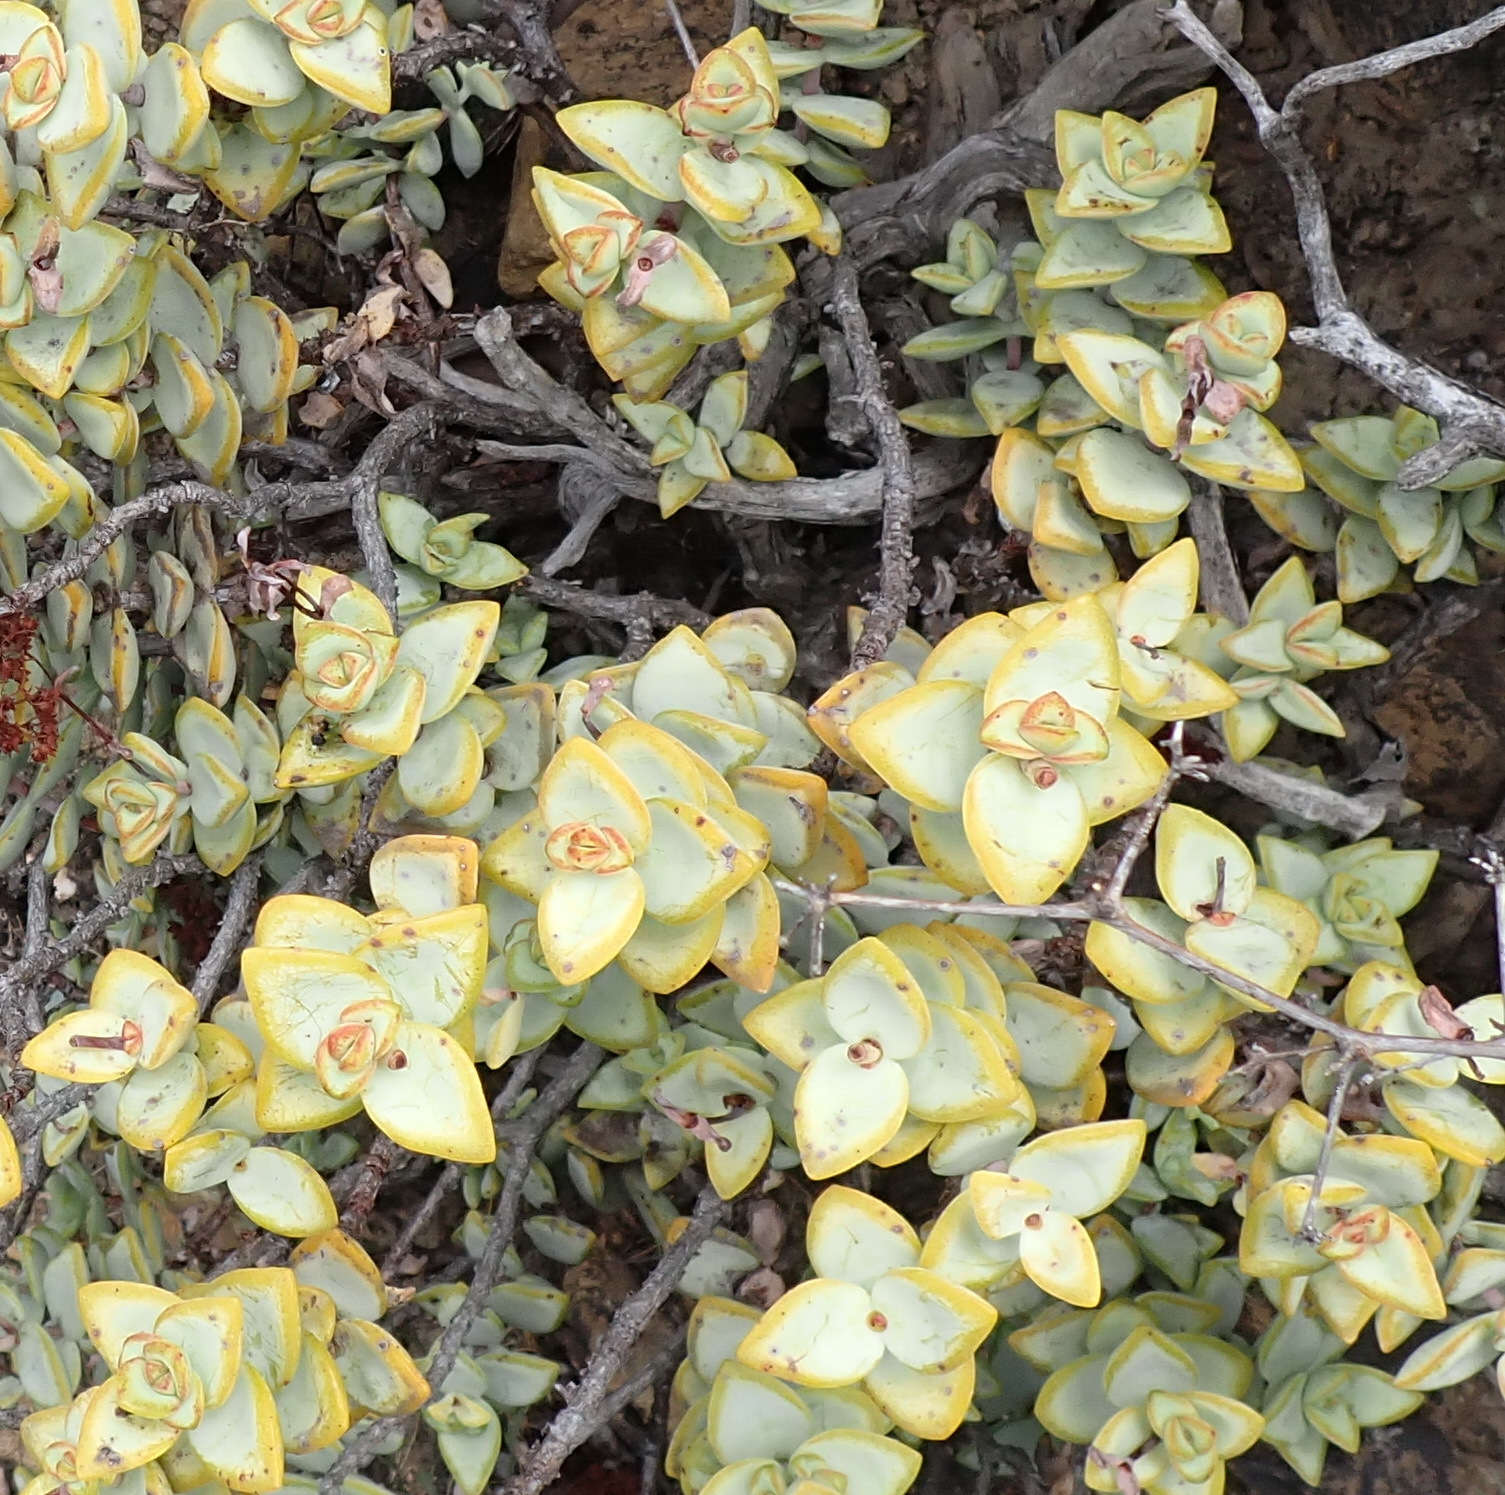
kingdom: Plantae
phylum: Tracheophyta
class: Magnoliopsida
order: Saxifragales
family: Crassulaceae
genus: Crassula
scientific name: Crassula rupestris
